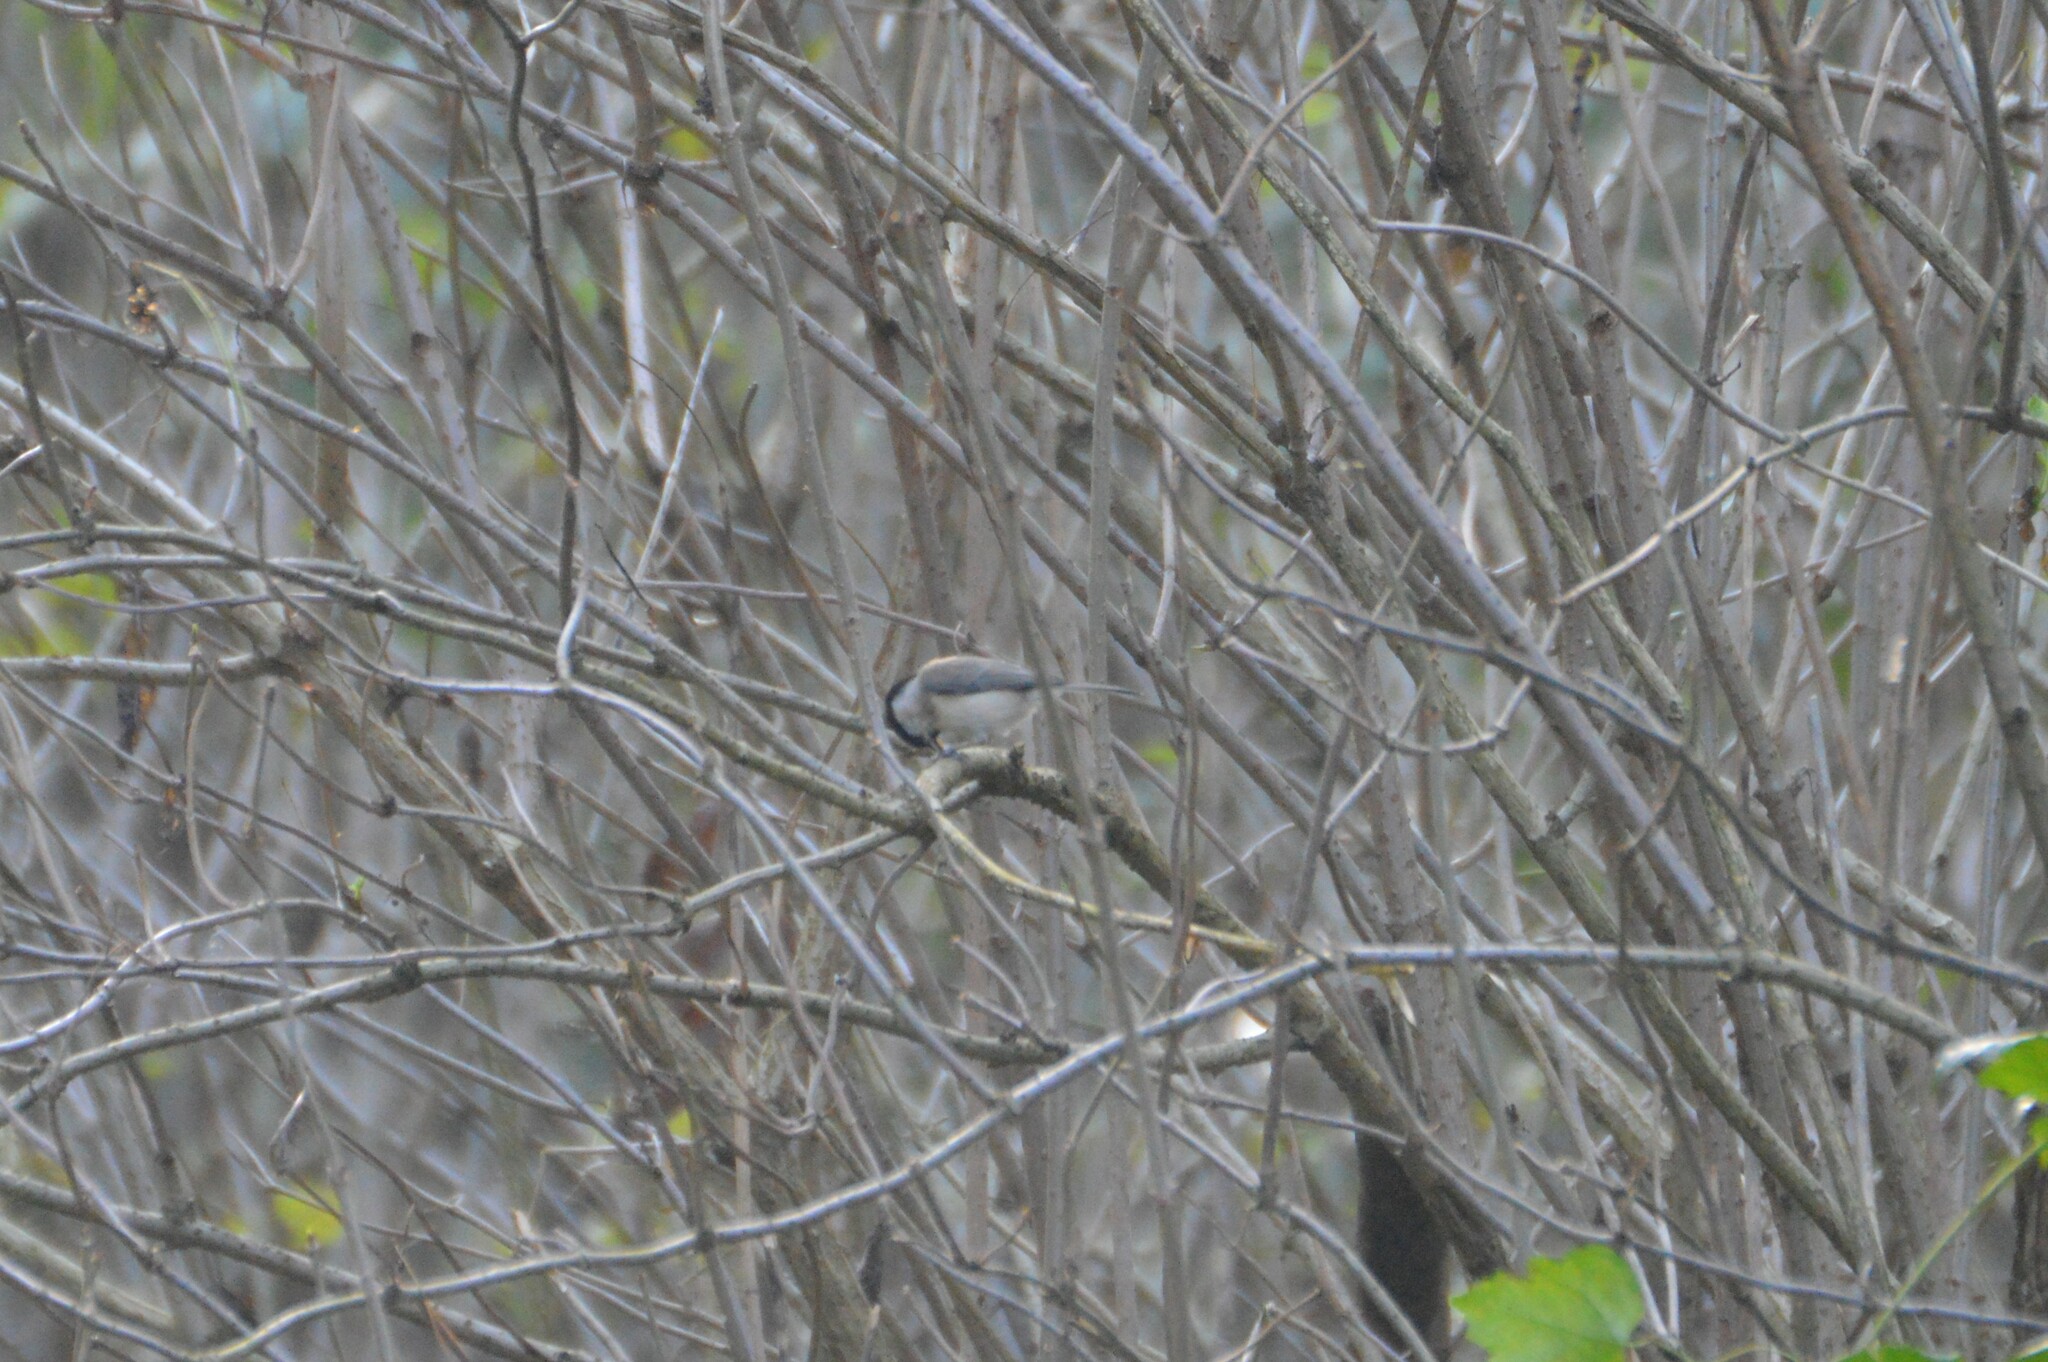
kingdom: Animalia
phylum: Chordata
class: Aves
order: Passeriformes
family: Paridae
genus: Poecile
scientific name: Poecile palustris
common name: Marsh tit
